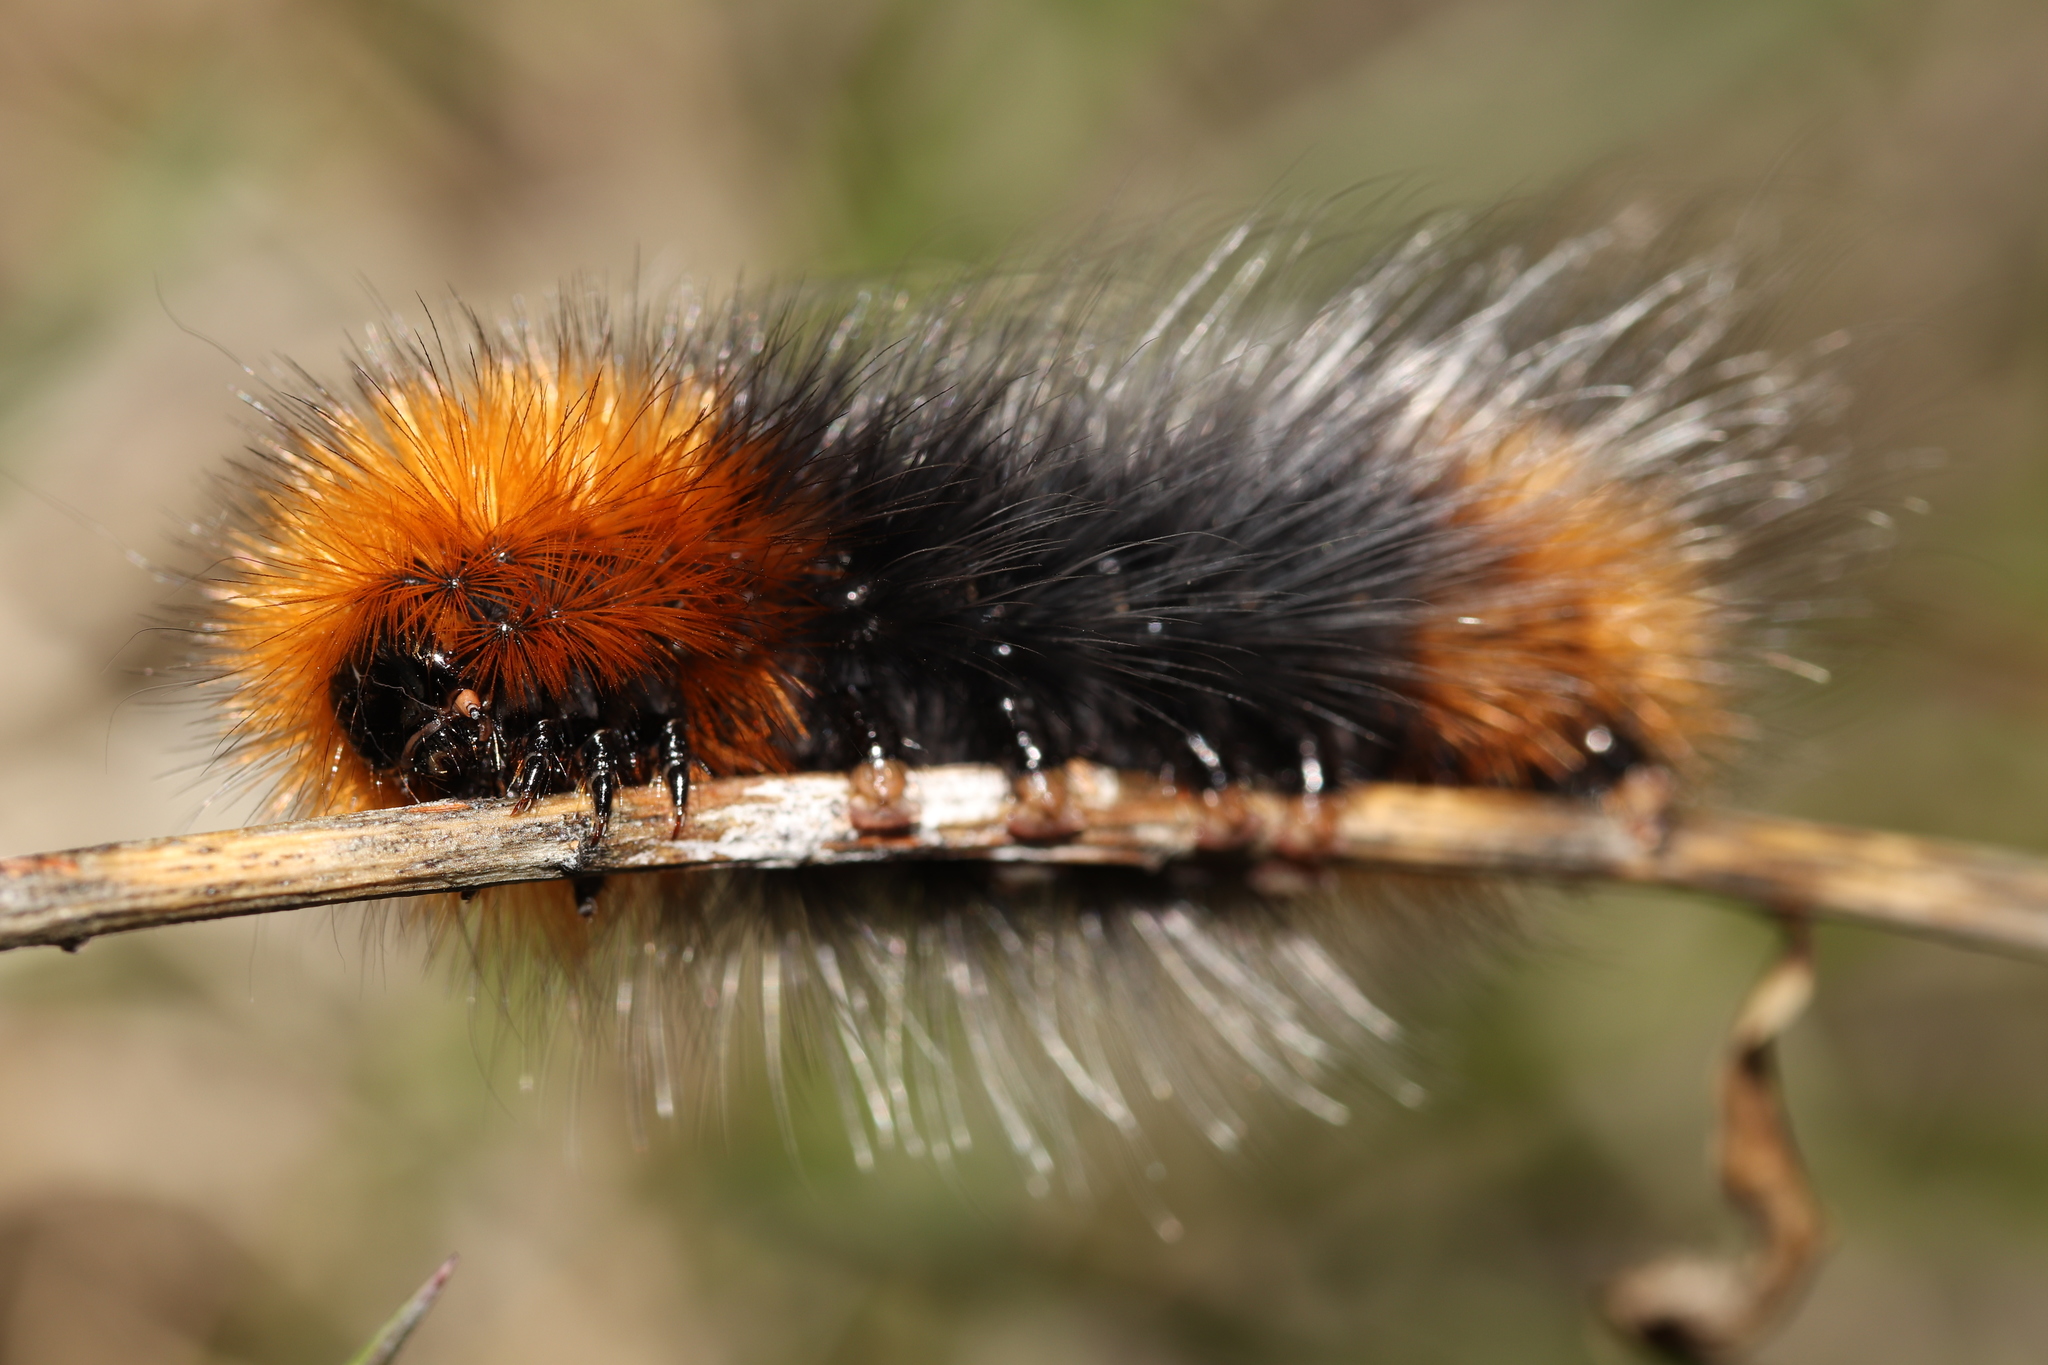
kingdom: Animalia
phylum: Arthropoda
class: Insecta
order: Lepidoptera
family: Erebidae
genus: Arctia
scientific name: Arctia tigrina
